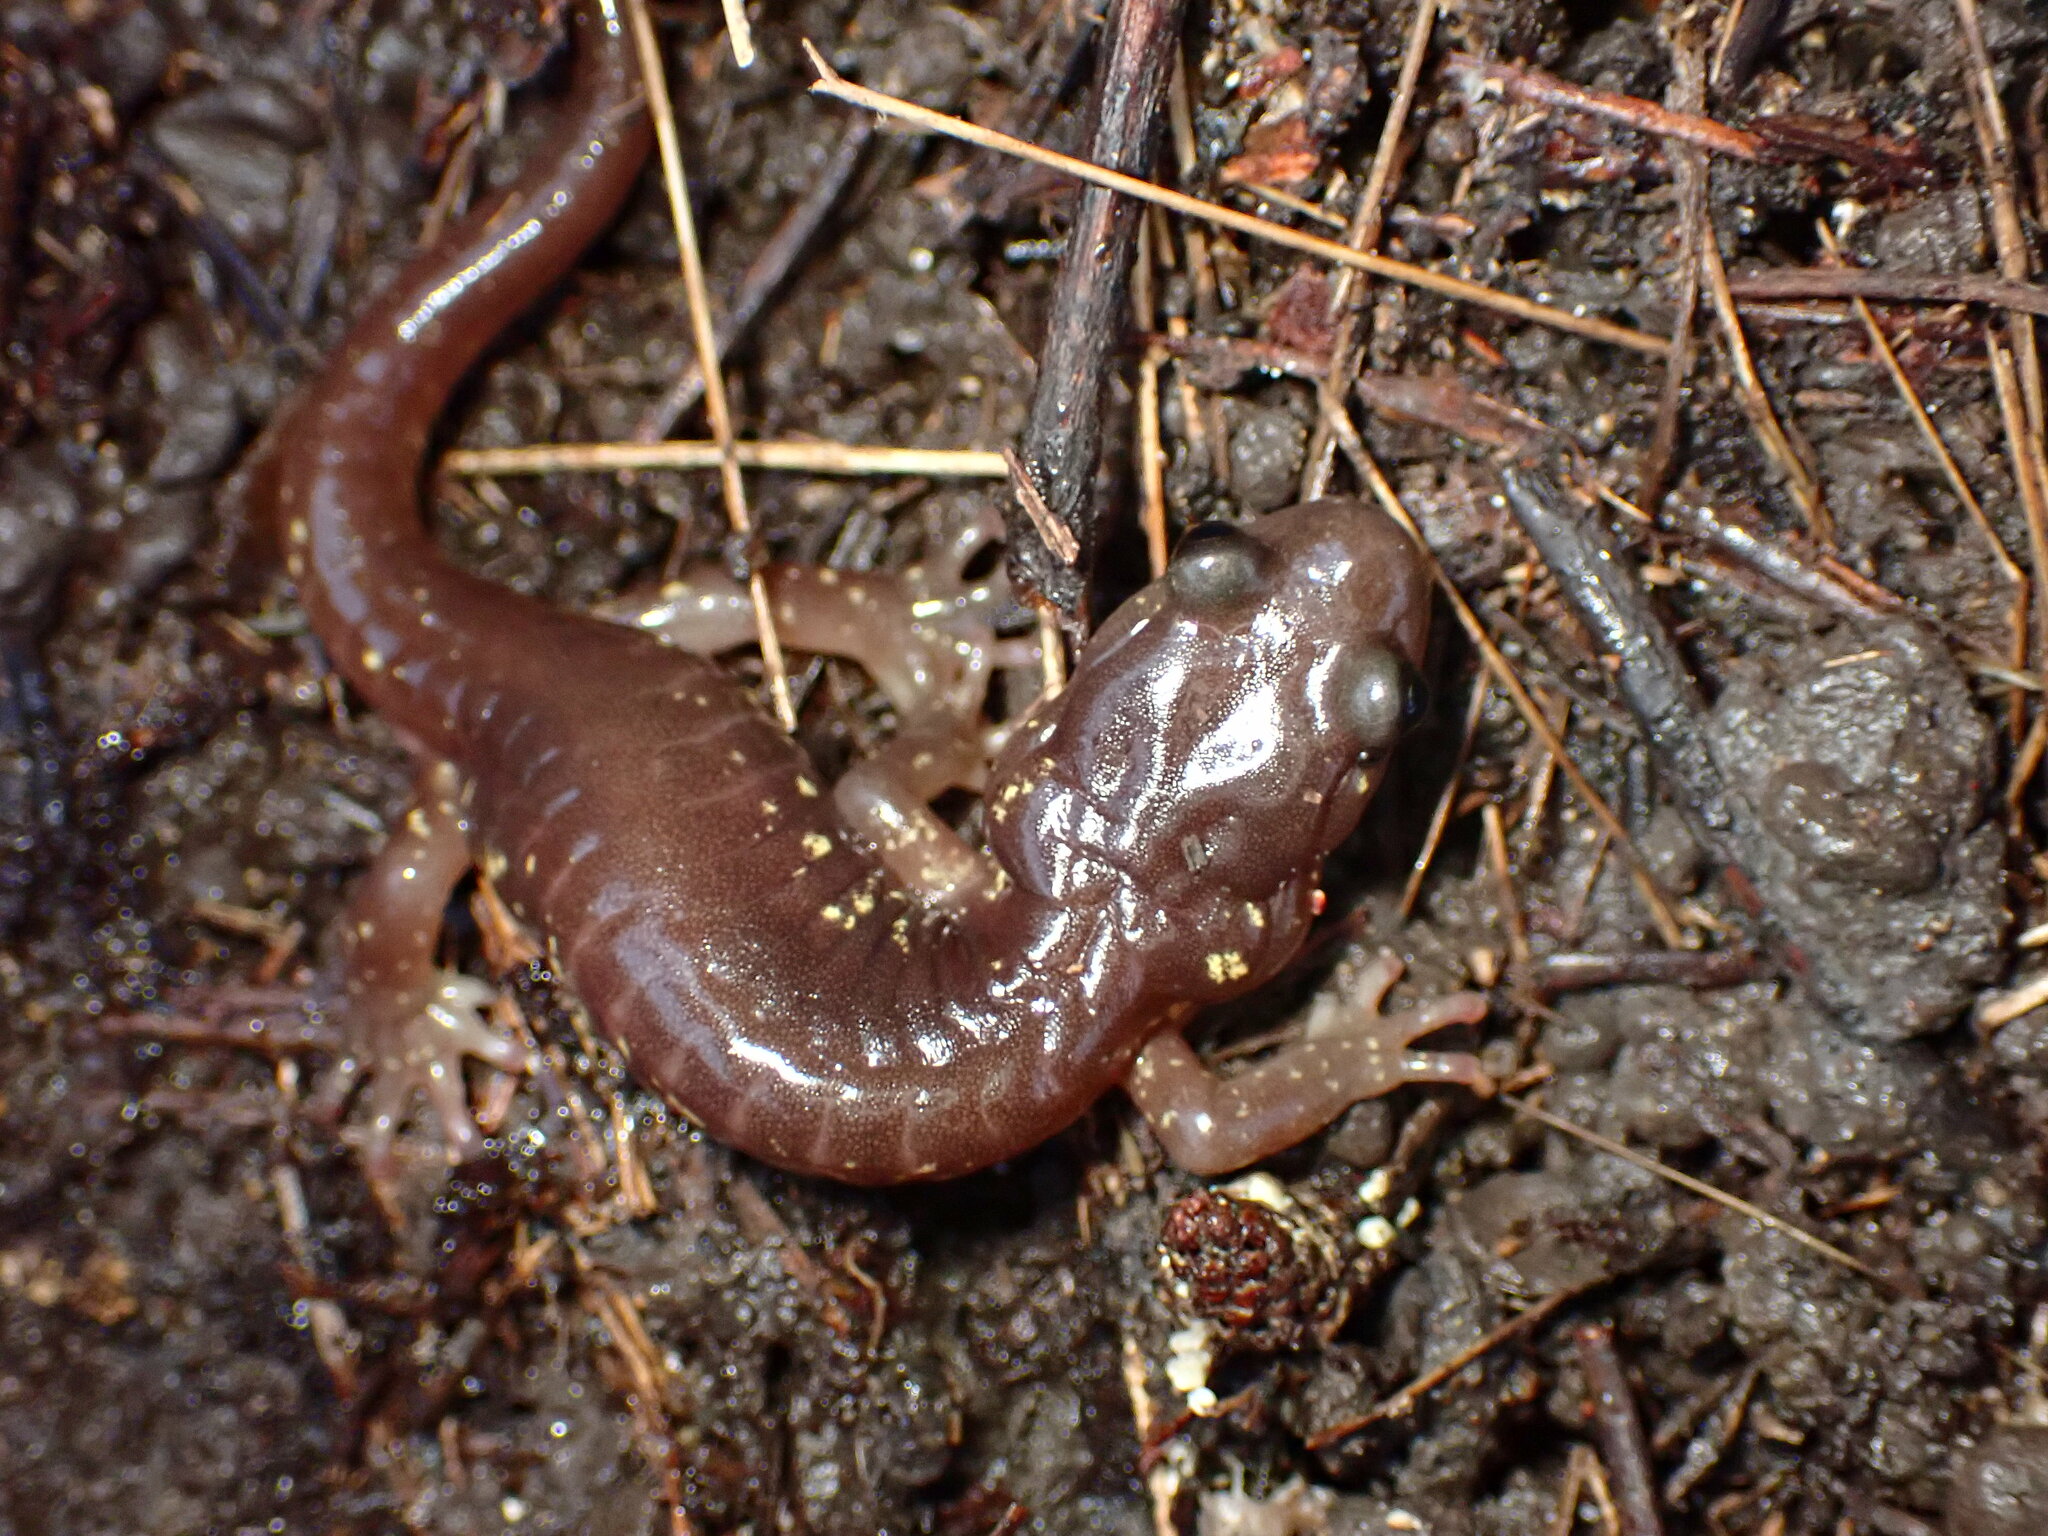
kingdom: Animalia
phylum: Chordata
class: Amphibia
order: Caudata
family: Plethodontidae
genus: Aneides
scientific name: Aneides lugubris
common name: Arboreal salamander
